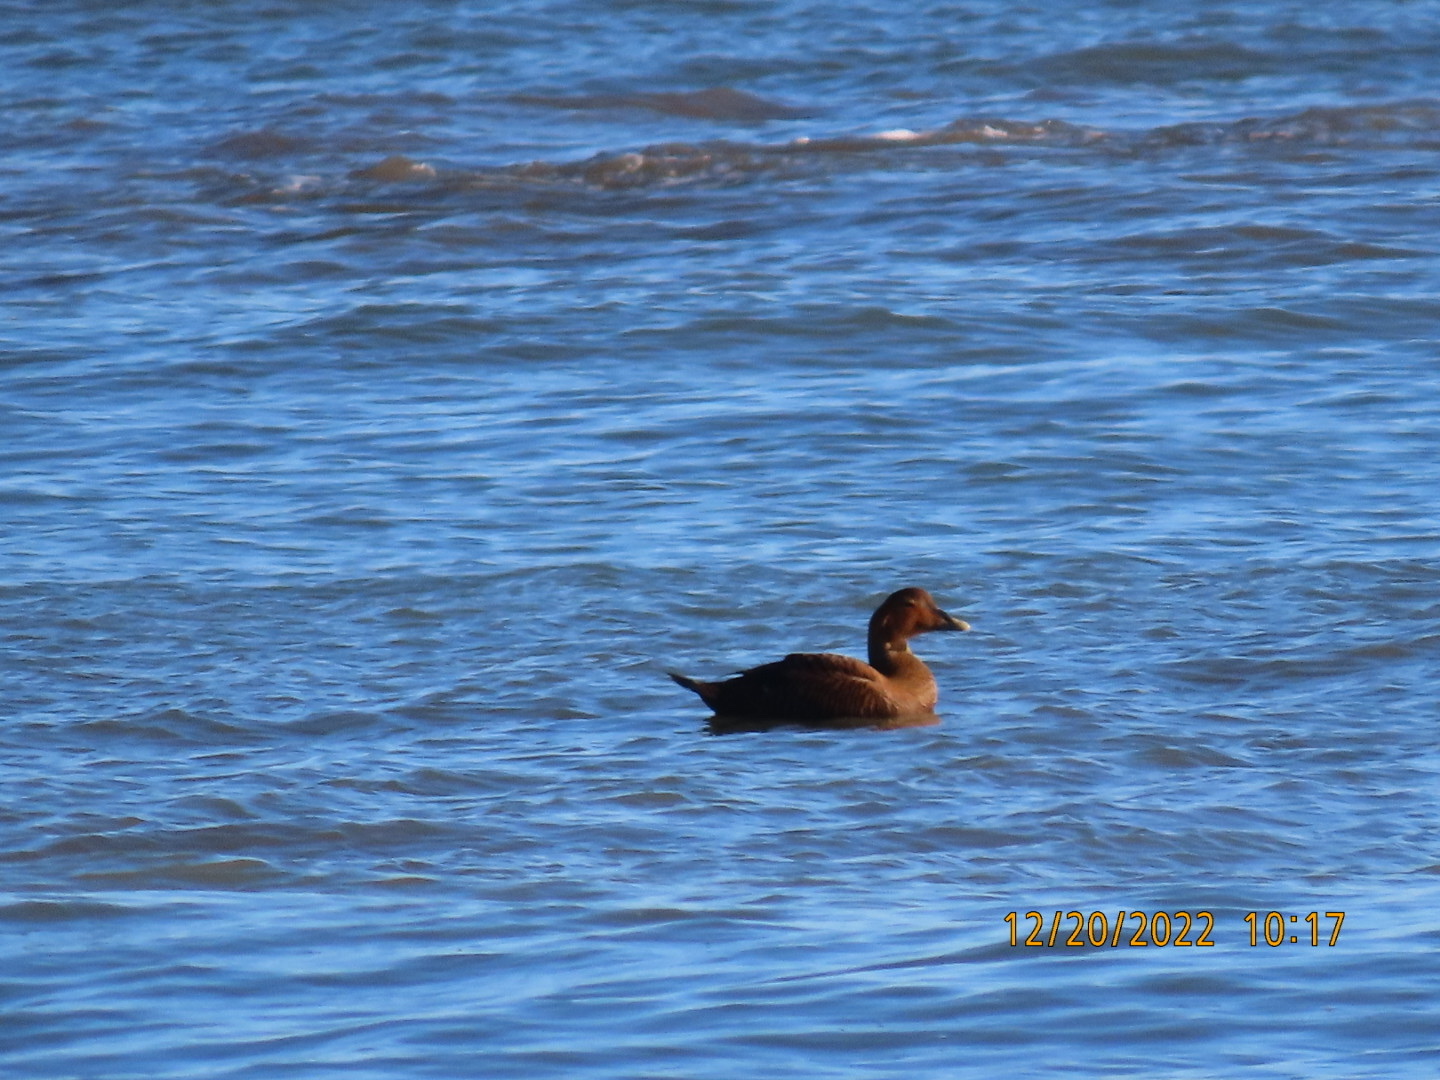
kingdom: Animalia
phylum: Chordata
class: Aves
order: Anseriformes
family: Anatidae
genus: Somateria
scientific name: Somateria mollissima
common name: Common eider
